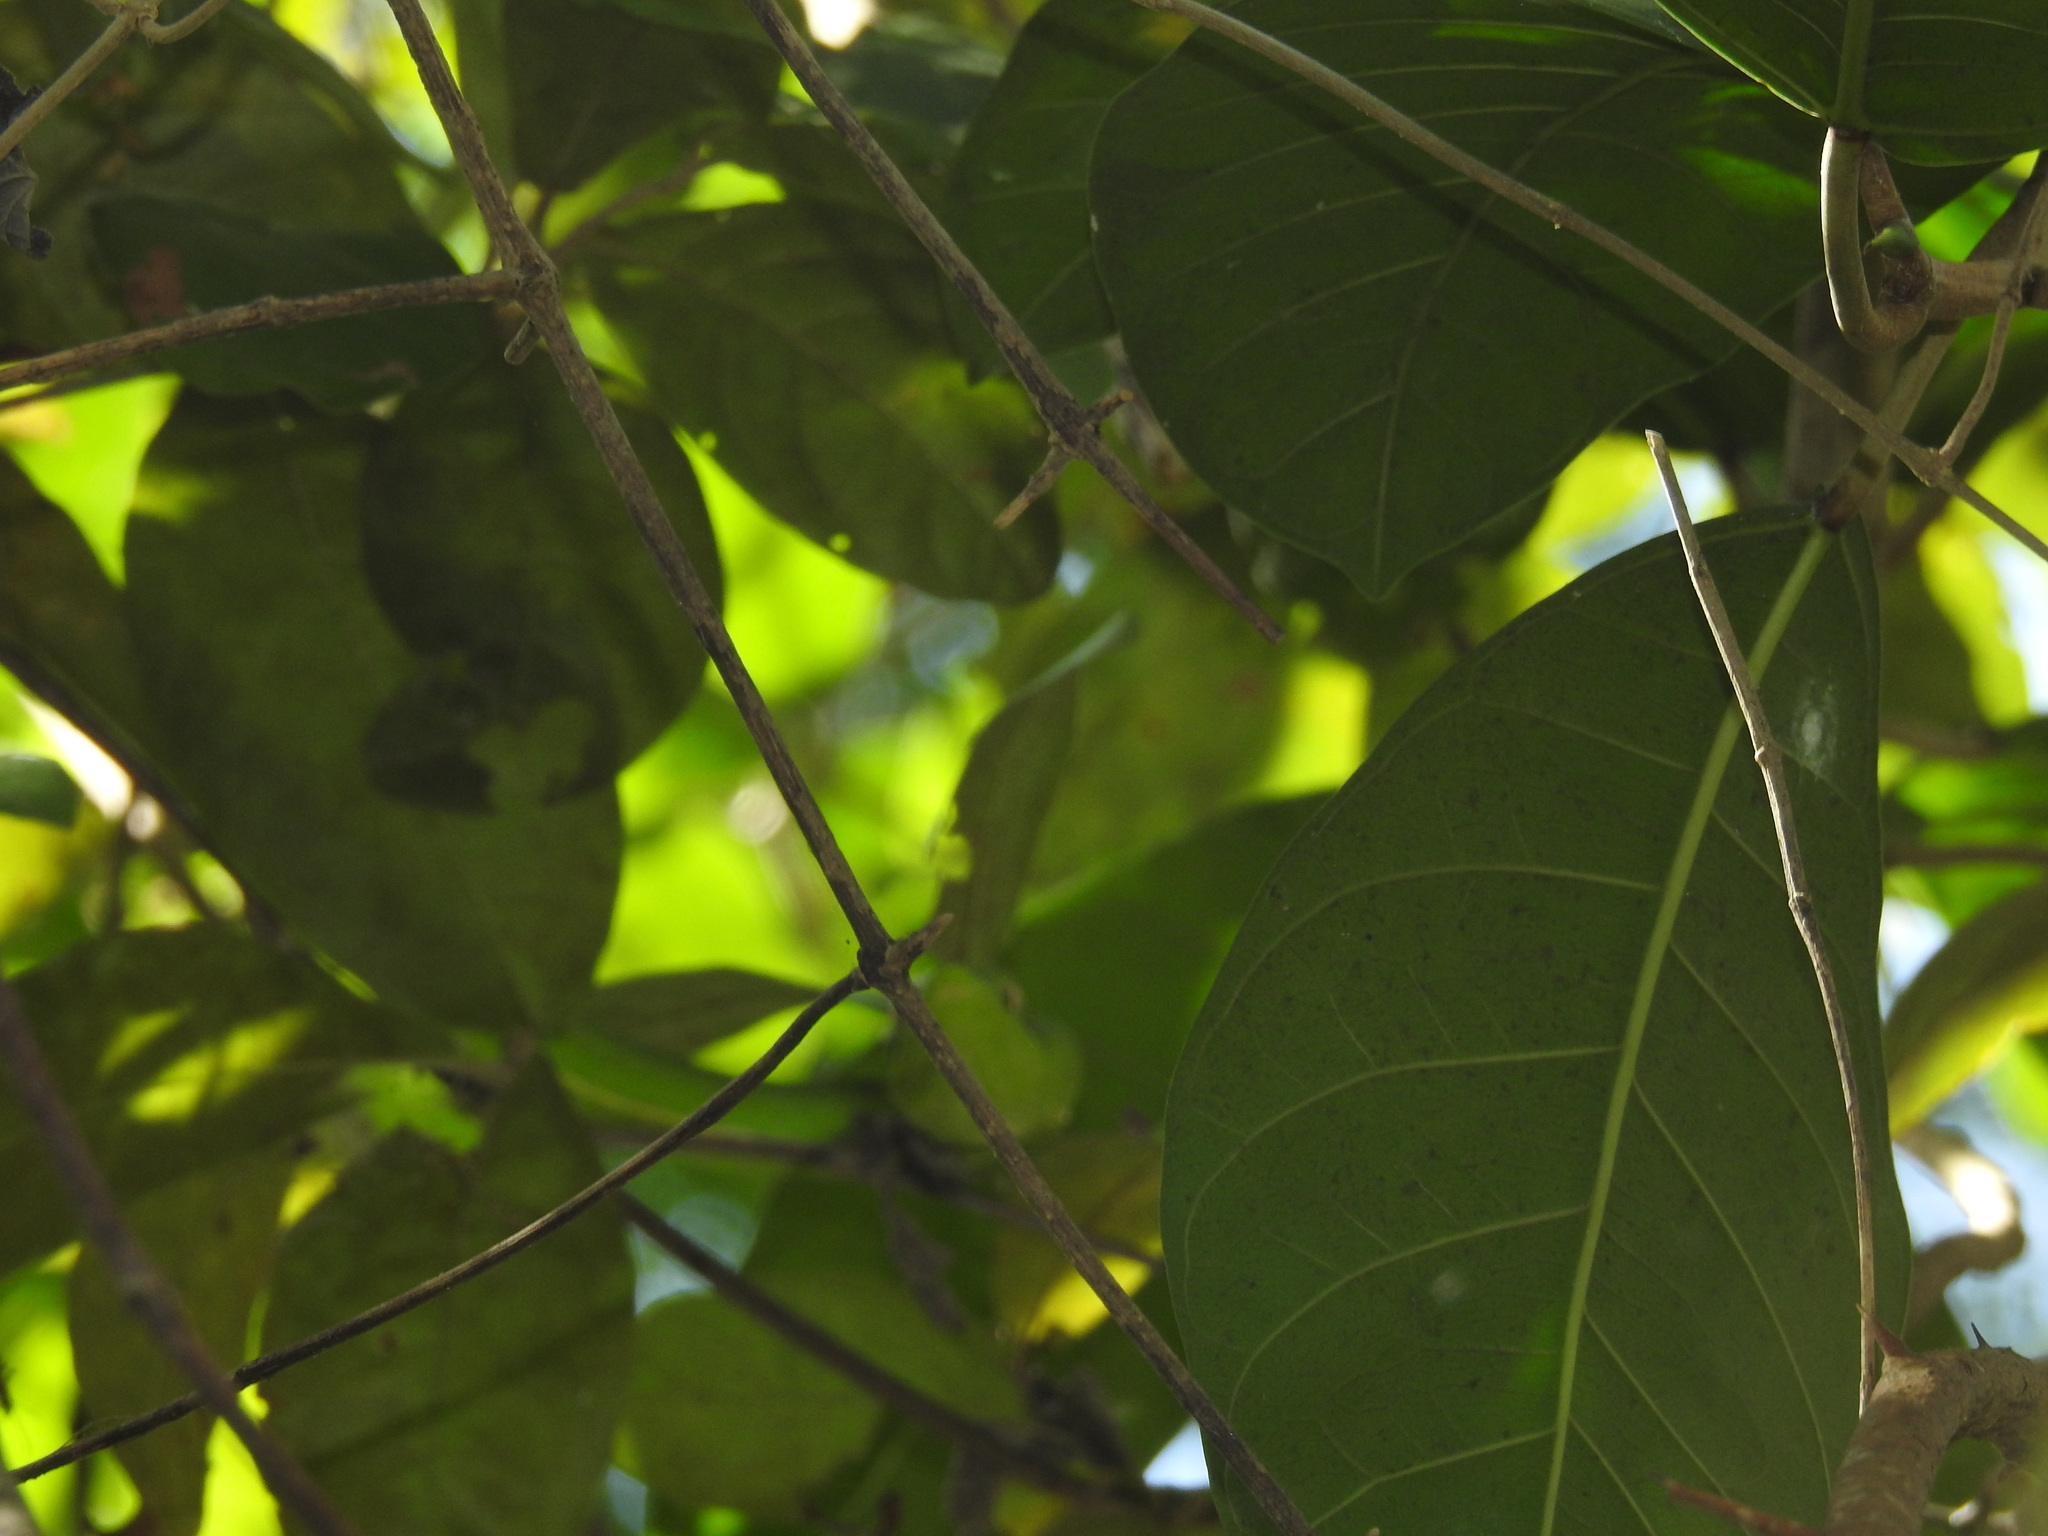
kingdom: Animalia
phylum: Chordata
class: Squamata
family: Colubridae
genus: Oxybelis
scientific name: Oxybelis fulgidus
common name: Green vine snake
